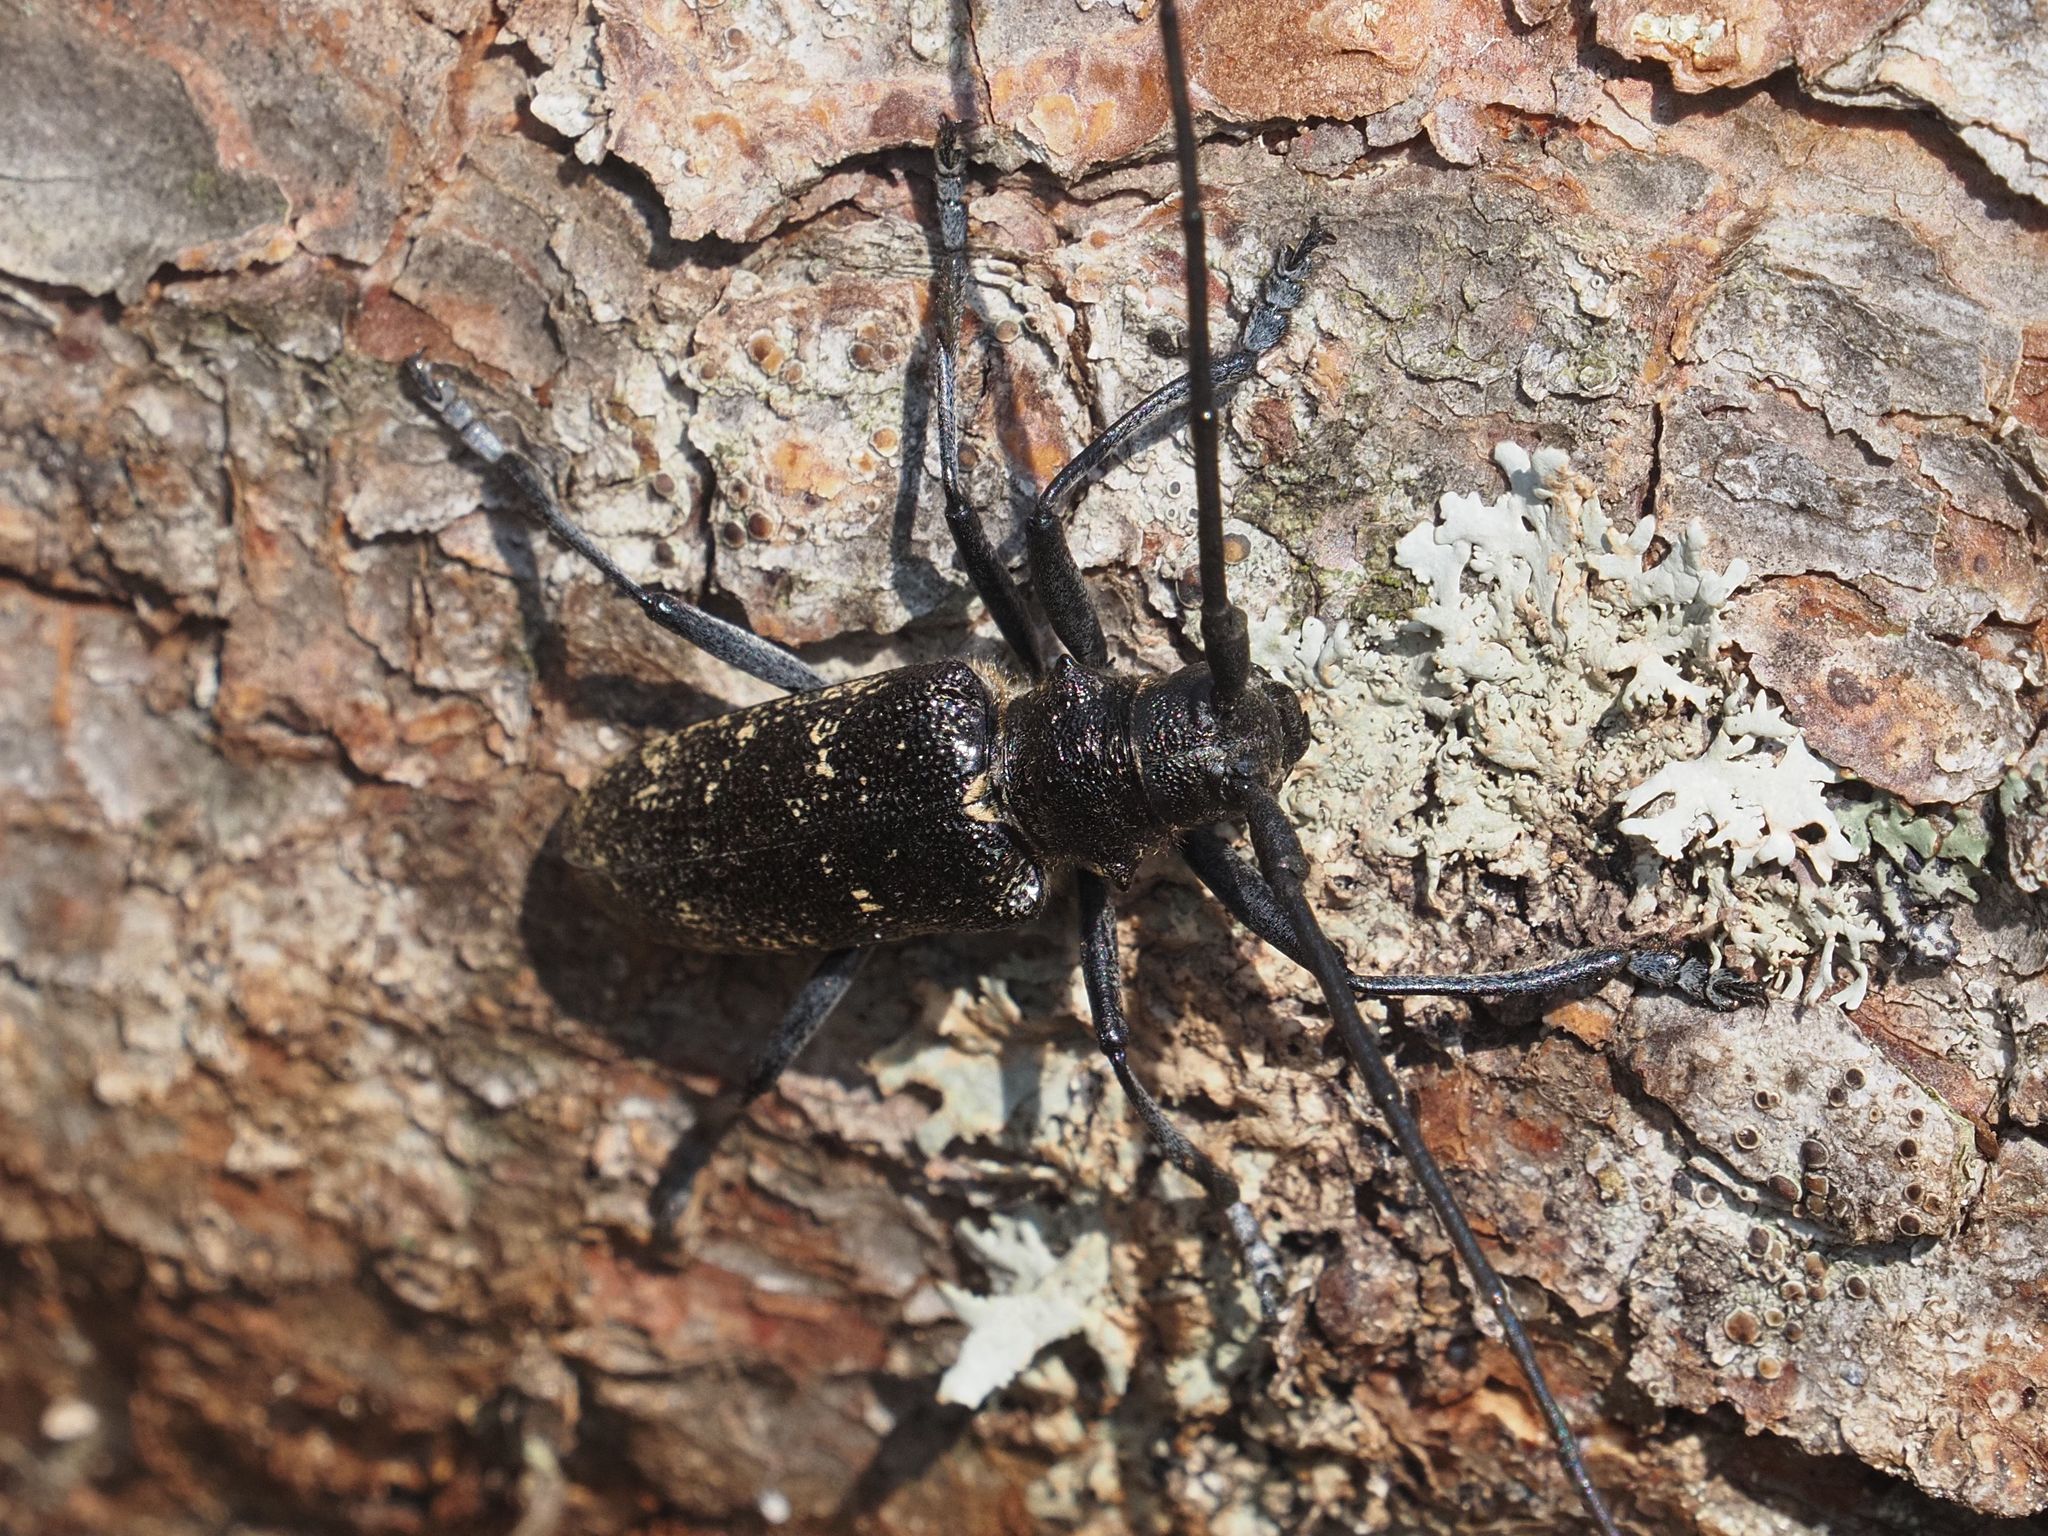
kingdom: Animalia
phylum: Arthropoda
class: Insecta
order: Coleoptera
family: Cerambycidae
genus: Monochamus
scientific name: Monochamus sutor
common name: Pine sawyer
